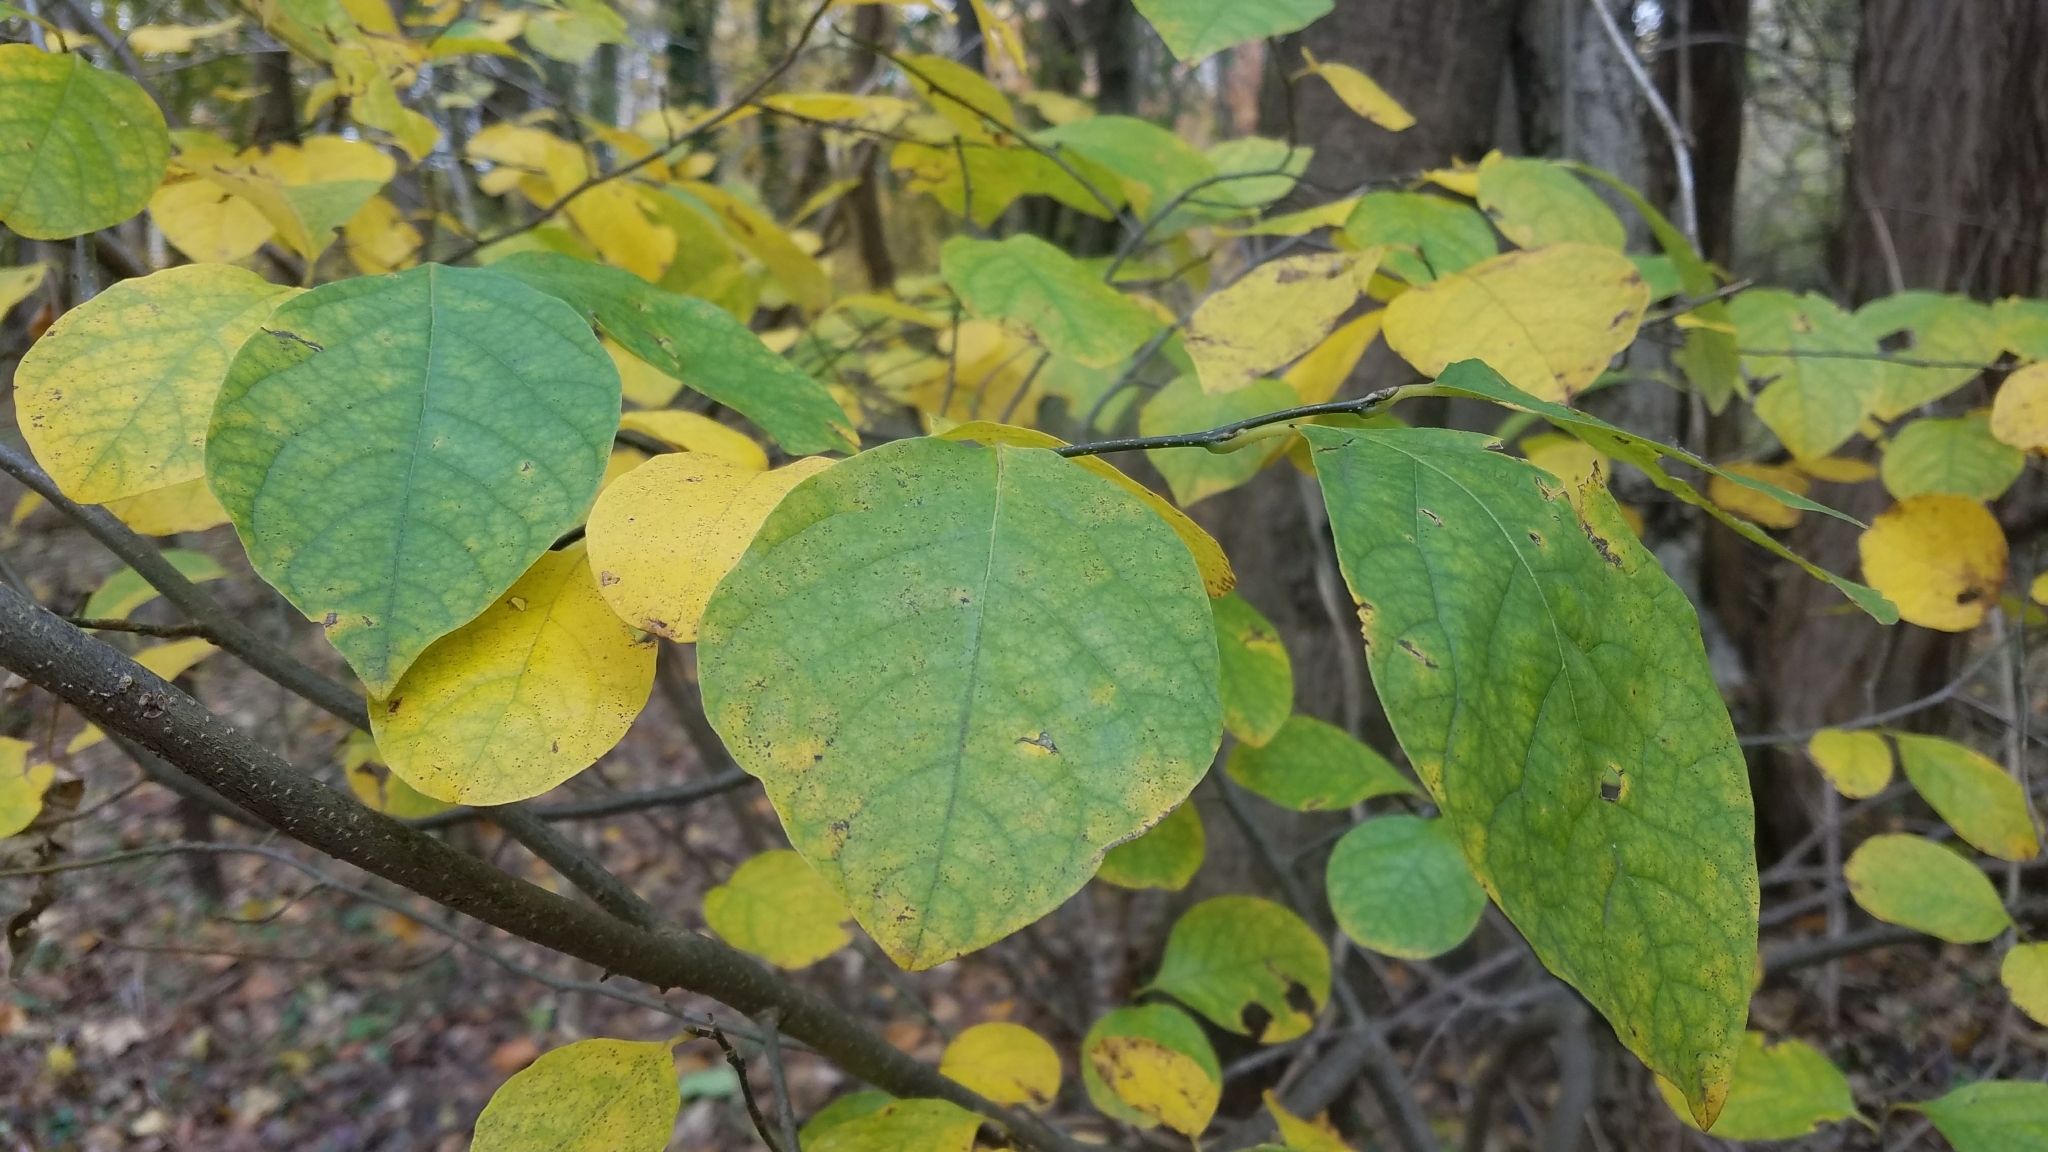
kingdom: Plantae
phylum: Tracheophyta
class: Magnoliopsida
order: Laurales
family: Lauraceae
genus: Lindera
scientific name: Lindera benzoin
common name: Spicebush
